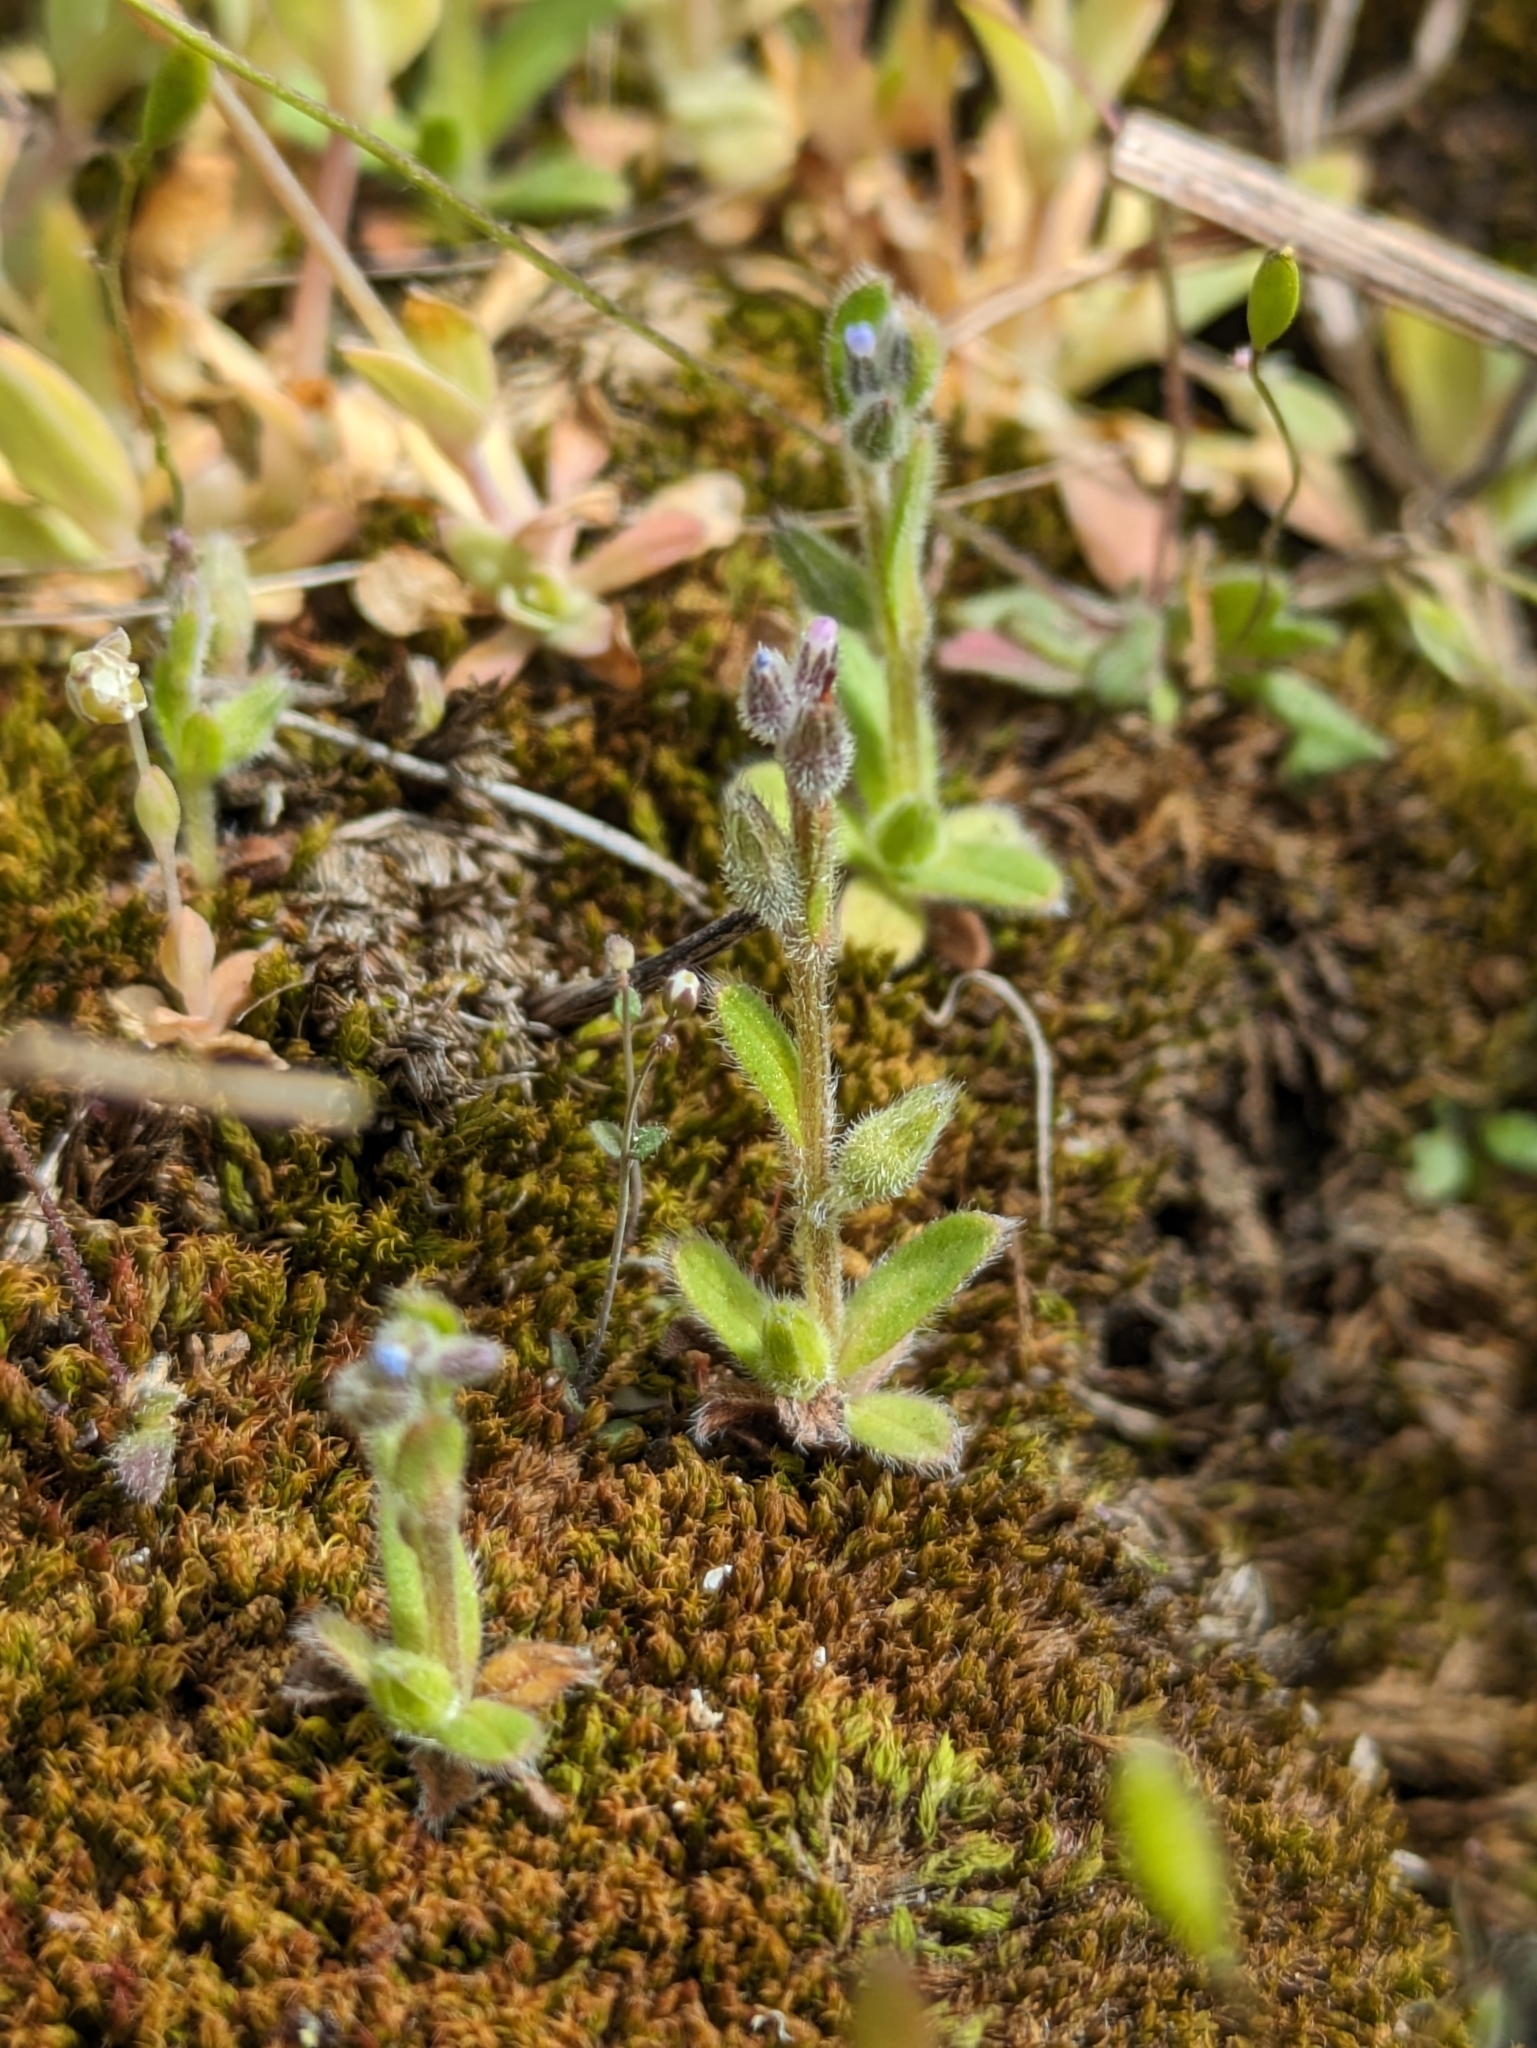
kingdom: Plantae
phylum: Tracheophyta
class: Magnoliopsida
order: Boraginales
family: Boraginaceae
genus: Myosotis
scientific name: Myosotis stricta
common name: Strict forget-me-not
